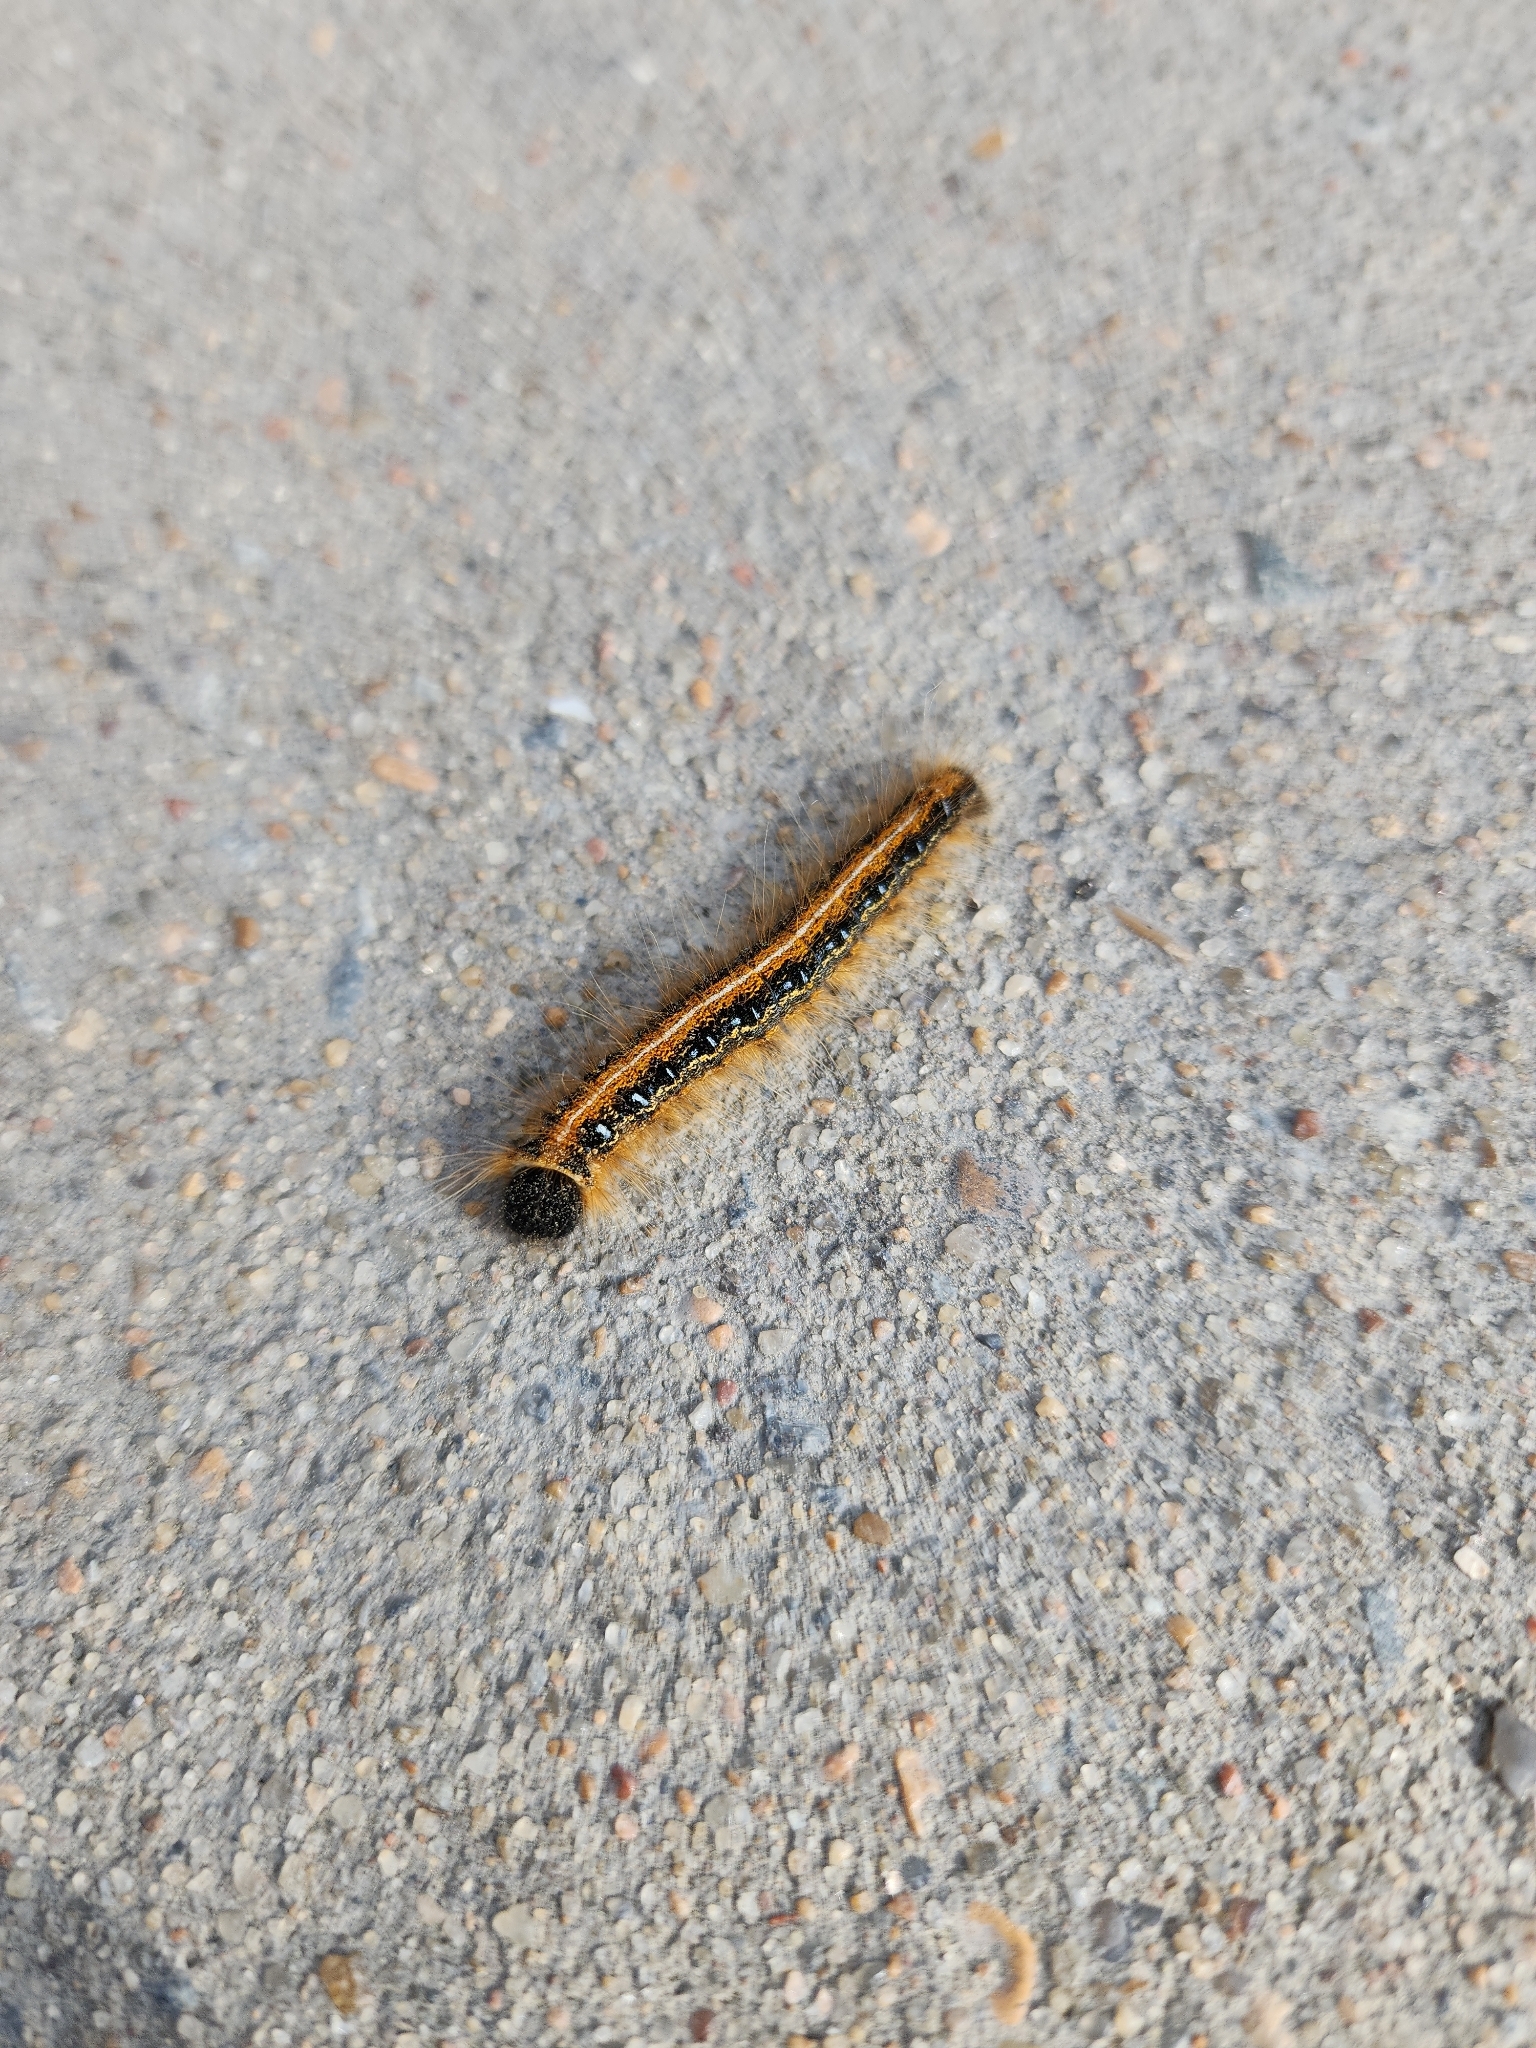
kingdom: Animalia
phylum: Arthropoda
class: Insecta
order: Lepidoptera
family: Lasiocampidae
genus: Malacosoma
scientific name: Malacosoma americana
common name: Eastern tent caterpillar moth
